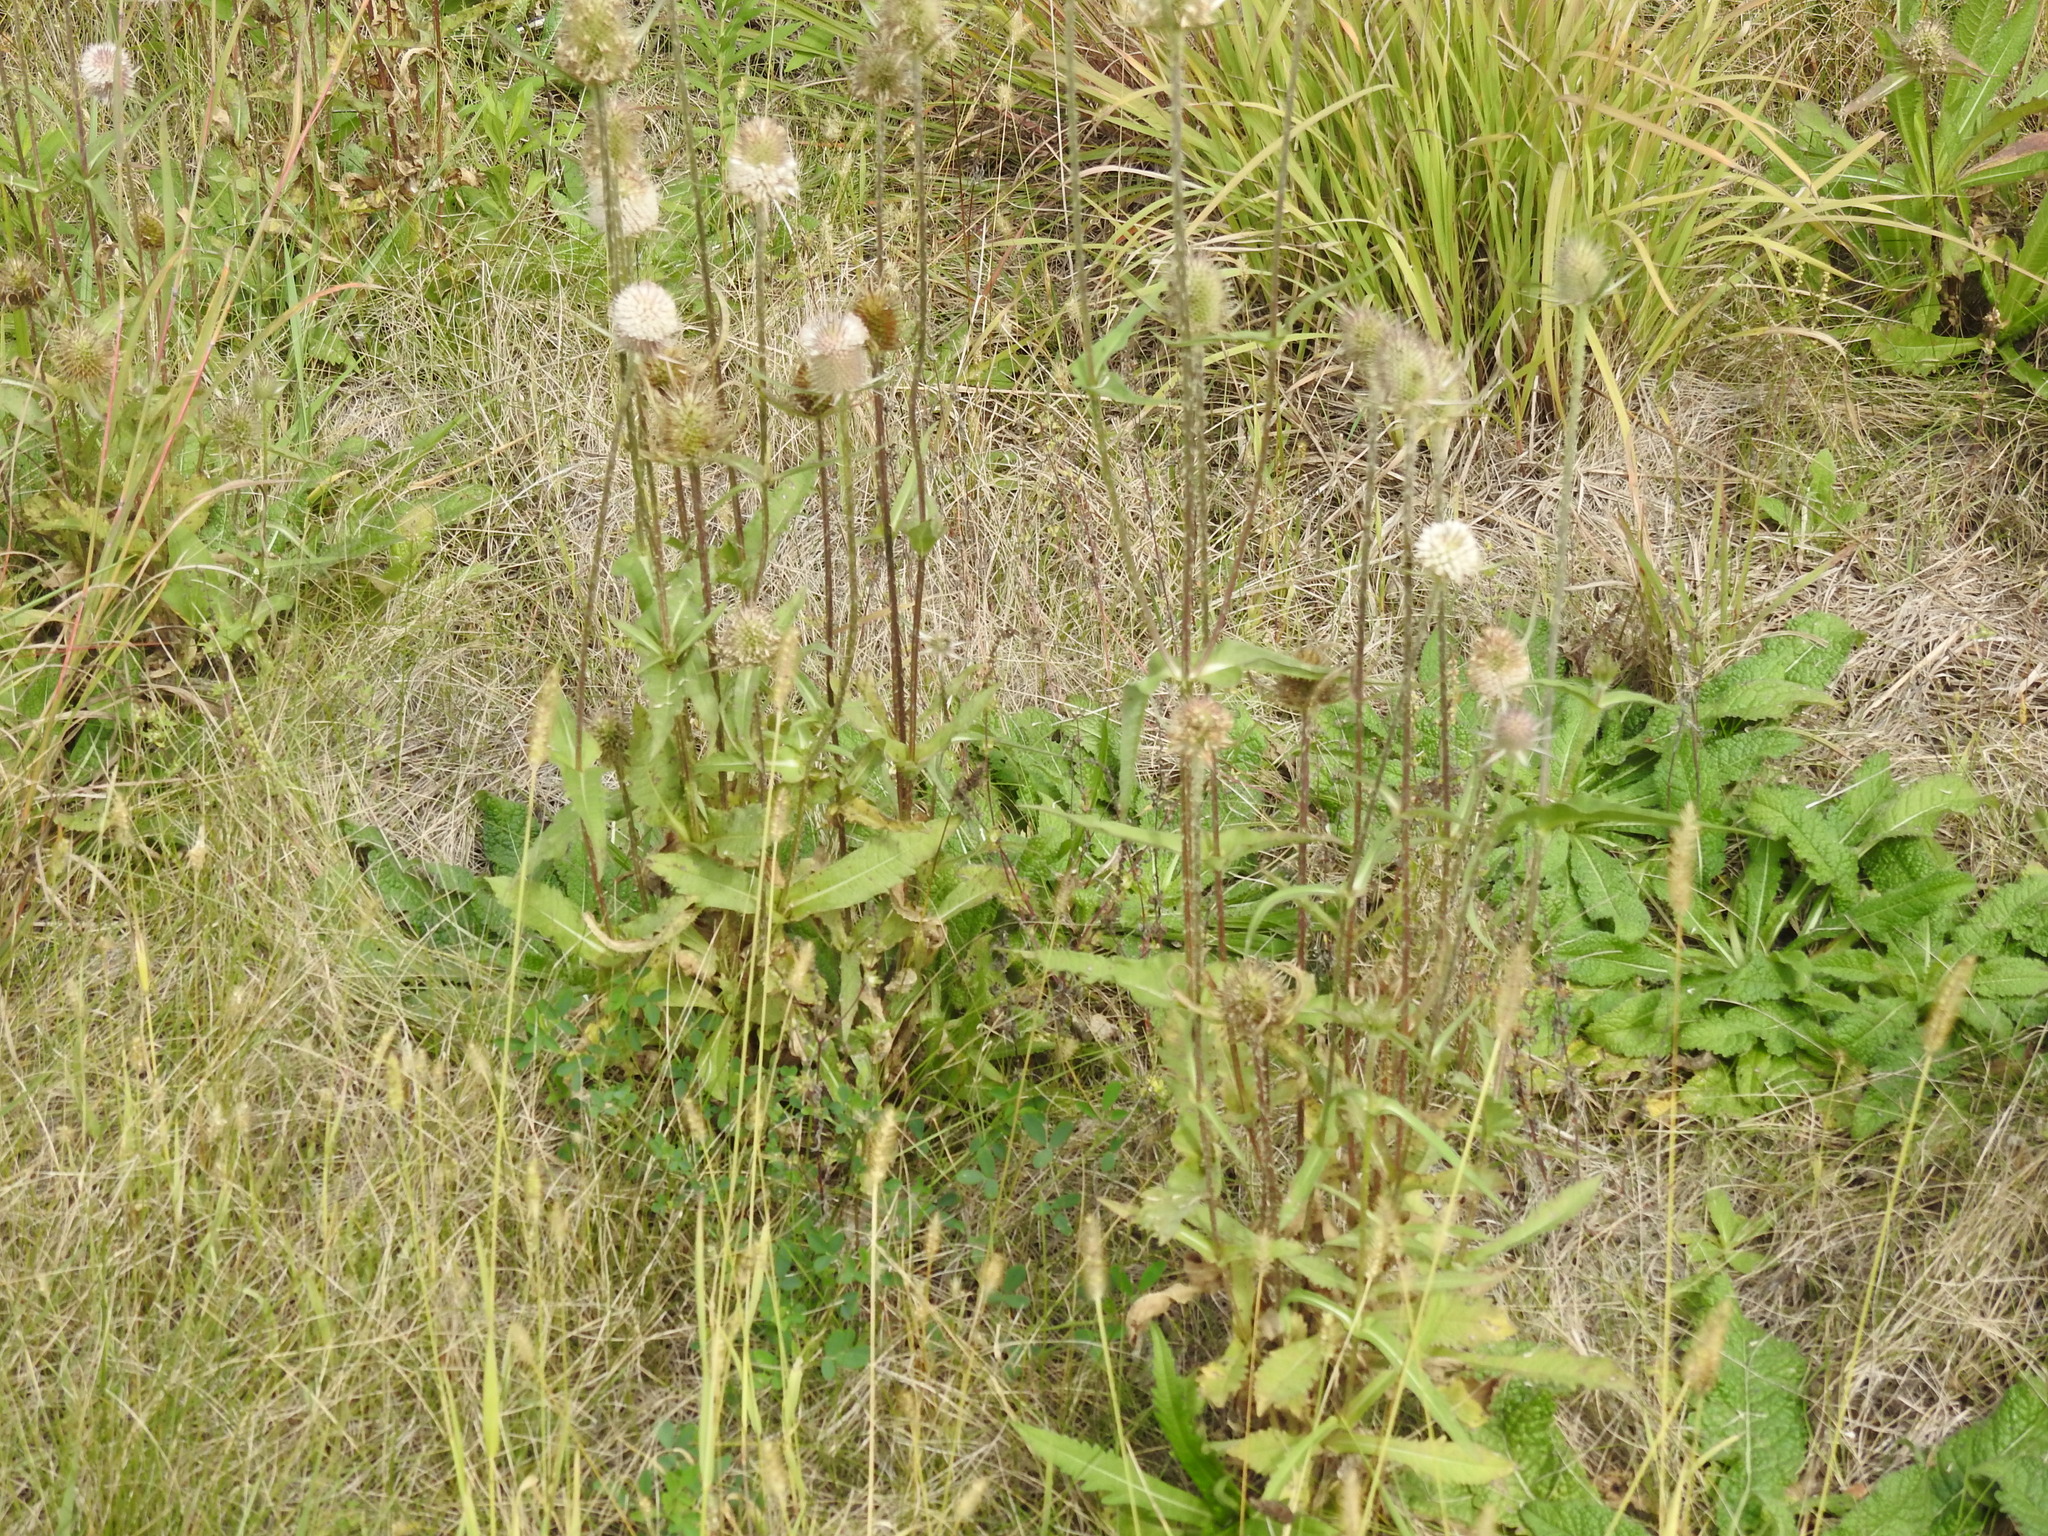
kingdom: Plantae
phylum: Tracheophyta
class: Magnoliopsida
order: Dipsacales
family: Caprifoliaceae
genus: Dipsacus
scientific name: Dipsacus laciniatus
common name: Cut-leaved teasel
